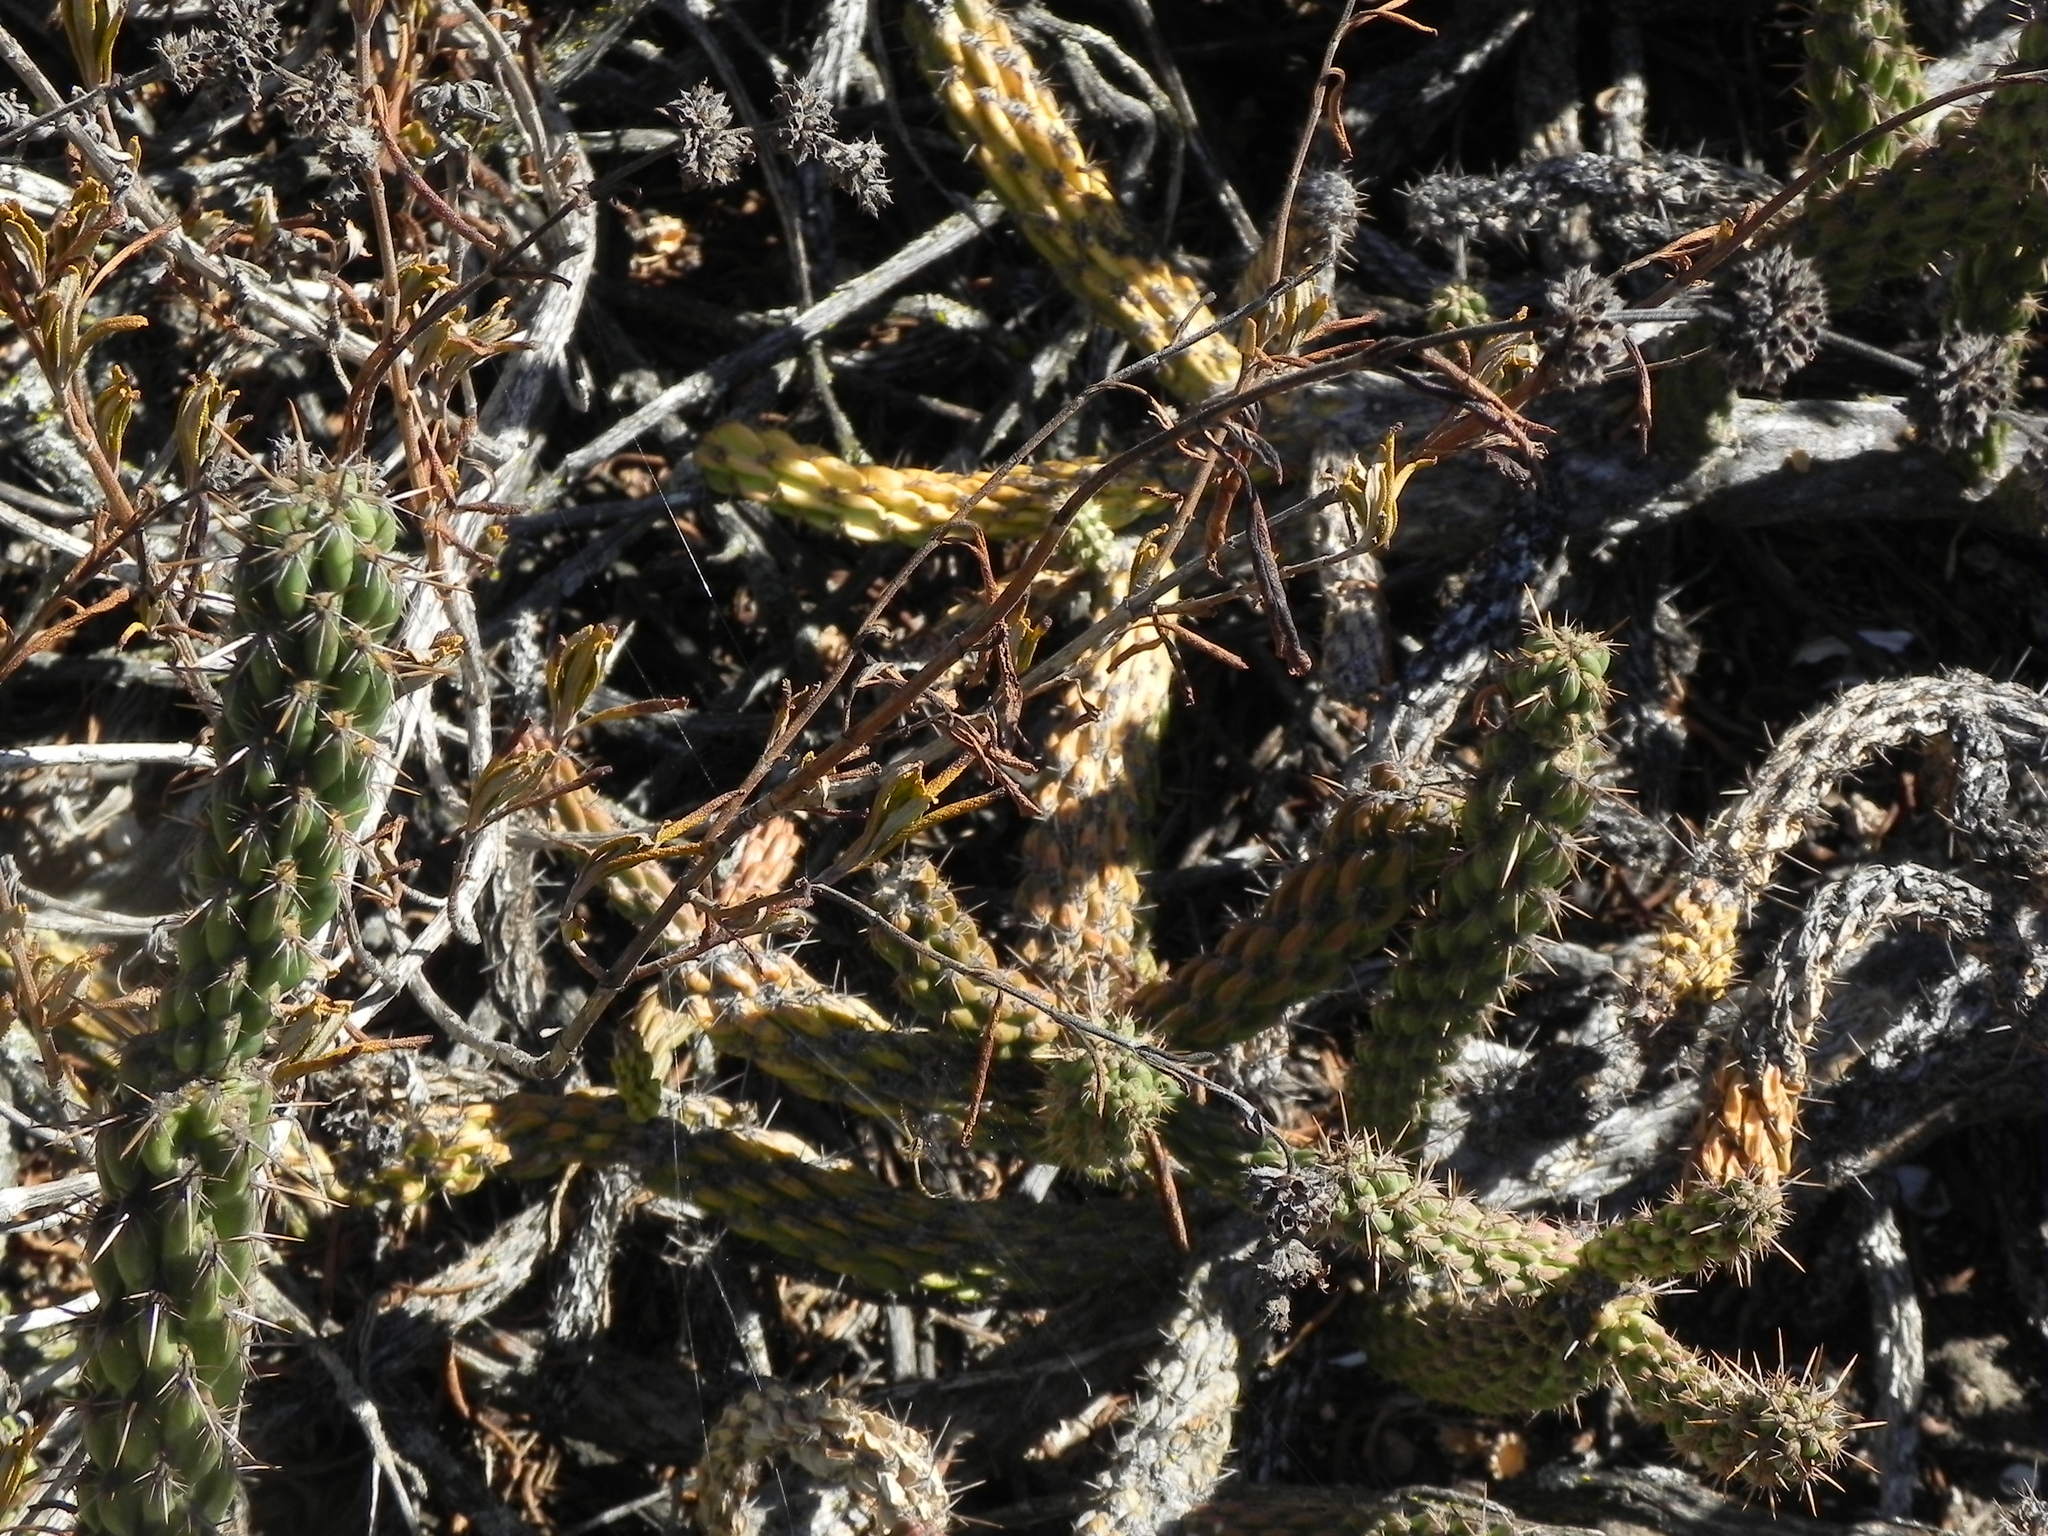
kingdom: Plantae
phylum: Tracheophyta
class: Magnoliopsida
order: Caryophyllales
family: Cactaceae
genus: Cylindropuntia
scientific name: Cylindropuntia californica
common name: Snake cholla
